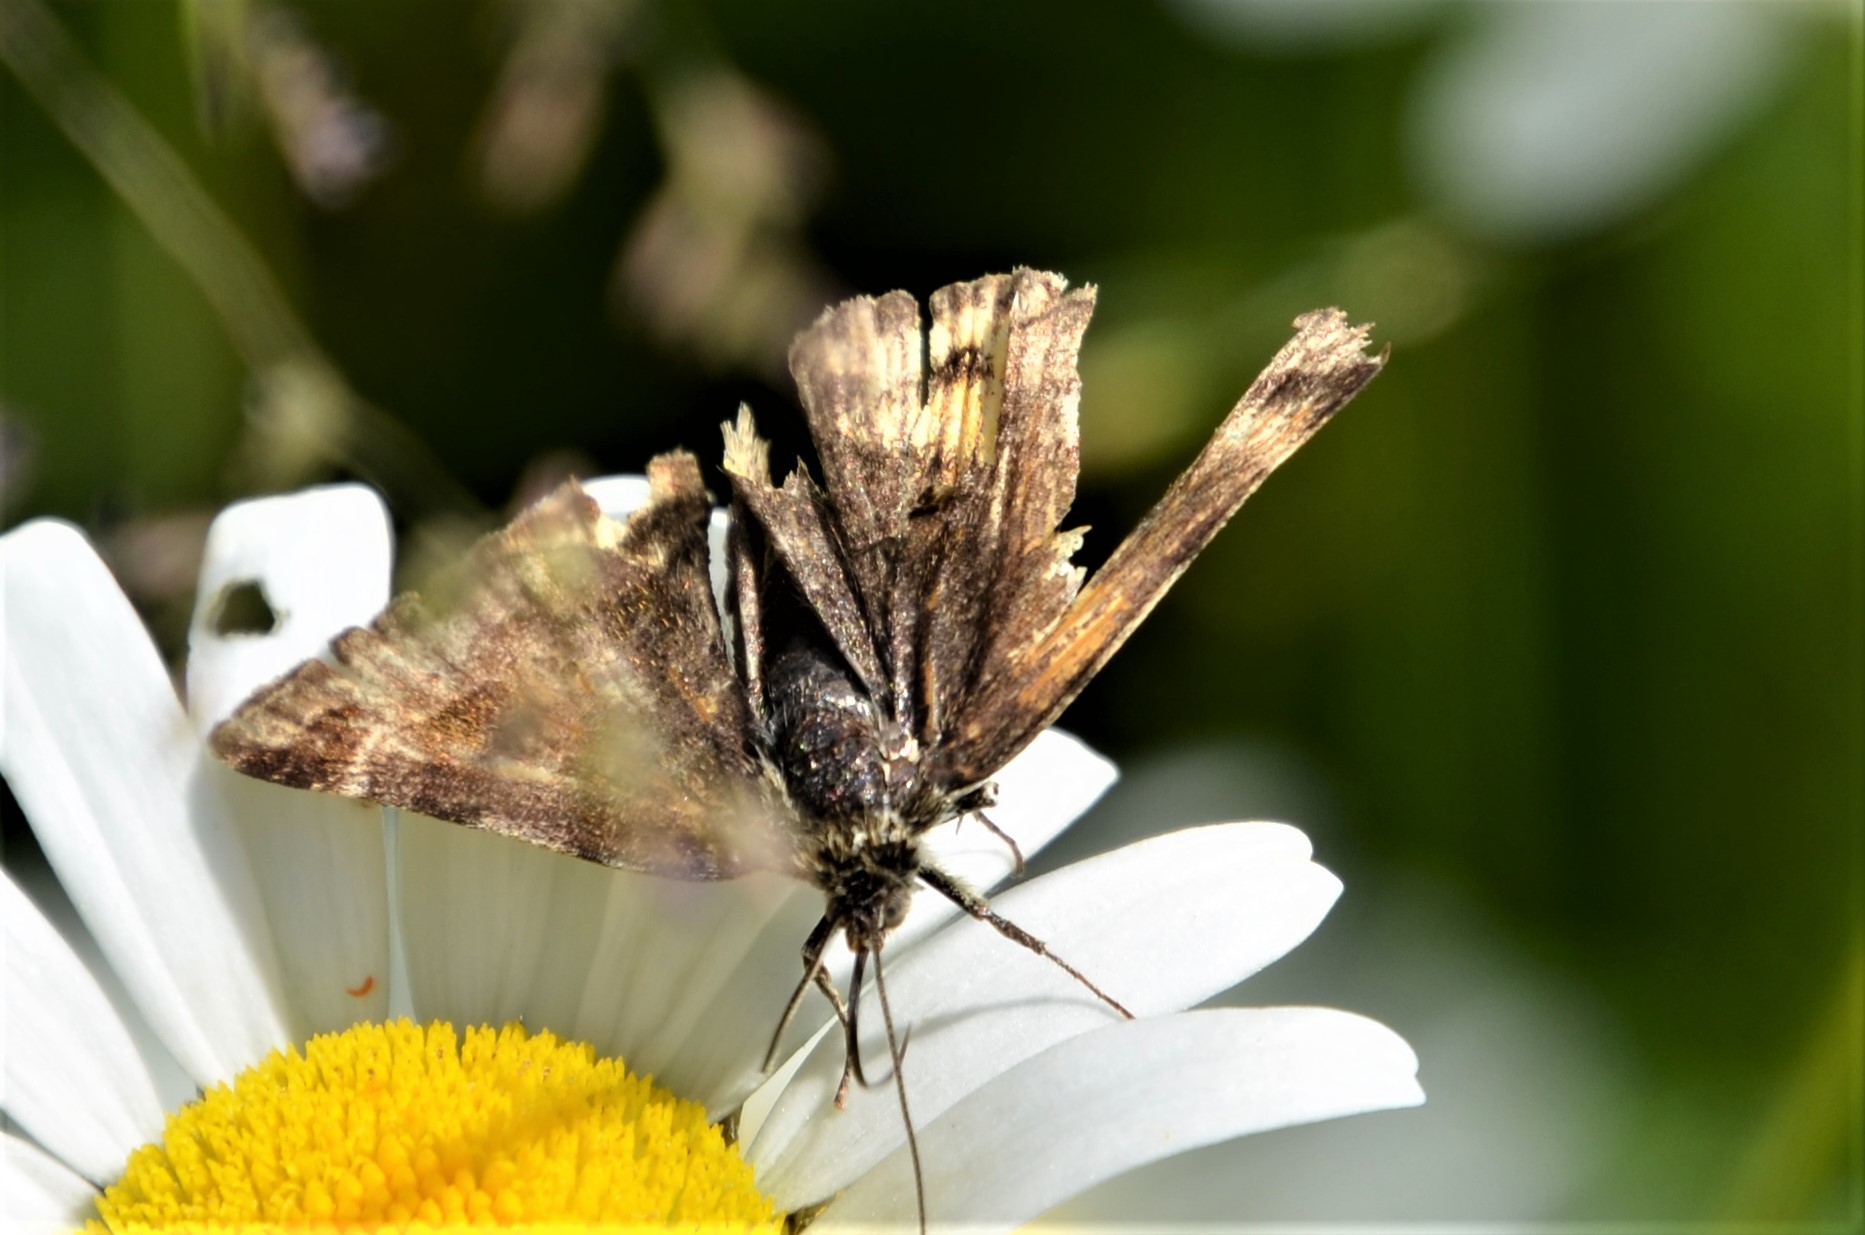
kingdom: Animalia
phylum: Arthropoda
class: Insecta
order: Lepidoptera
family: Erebidae
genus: Euclidia
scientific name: Euclidia glyphica
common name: Burnet companion
